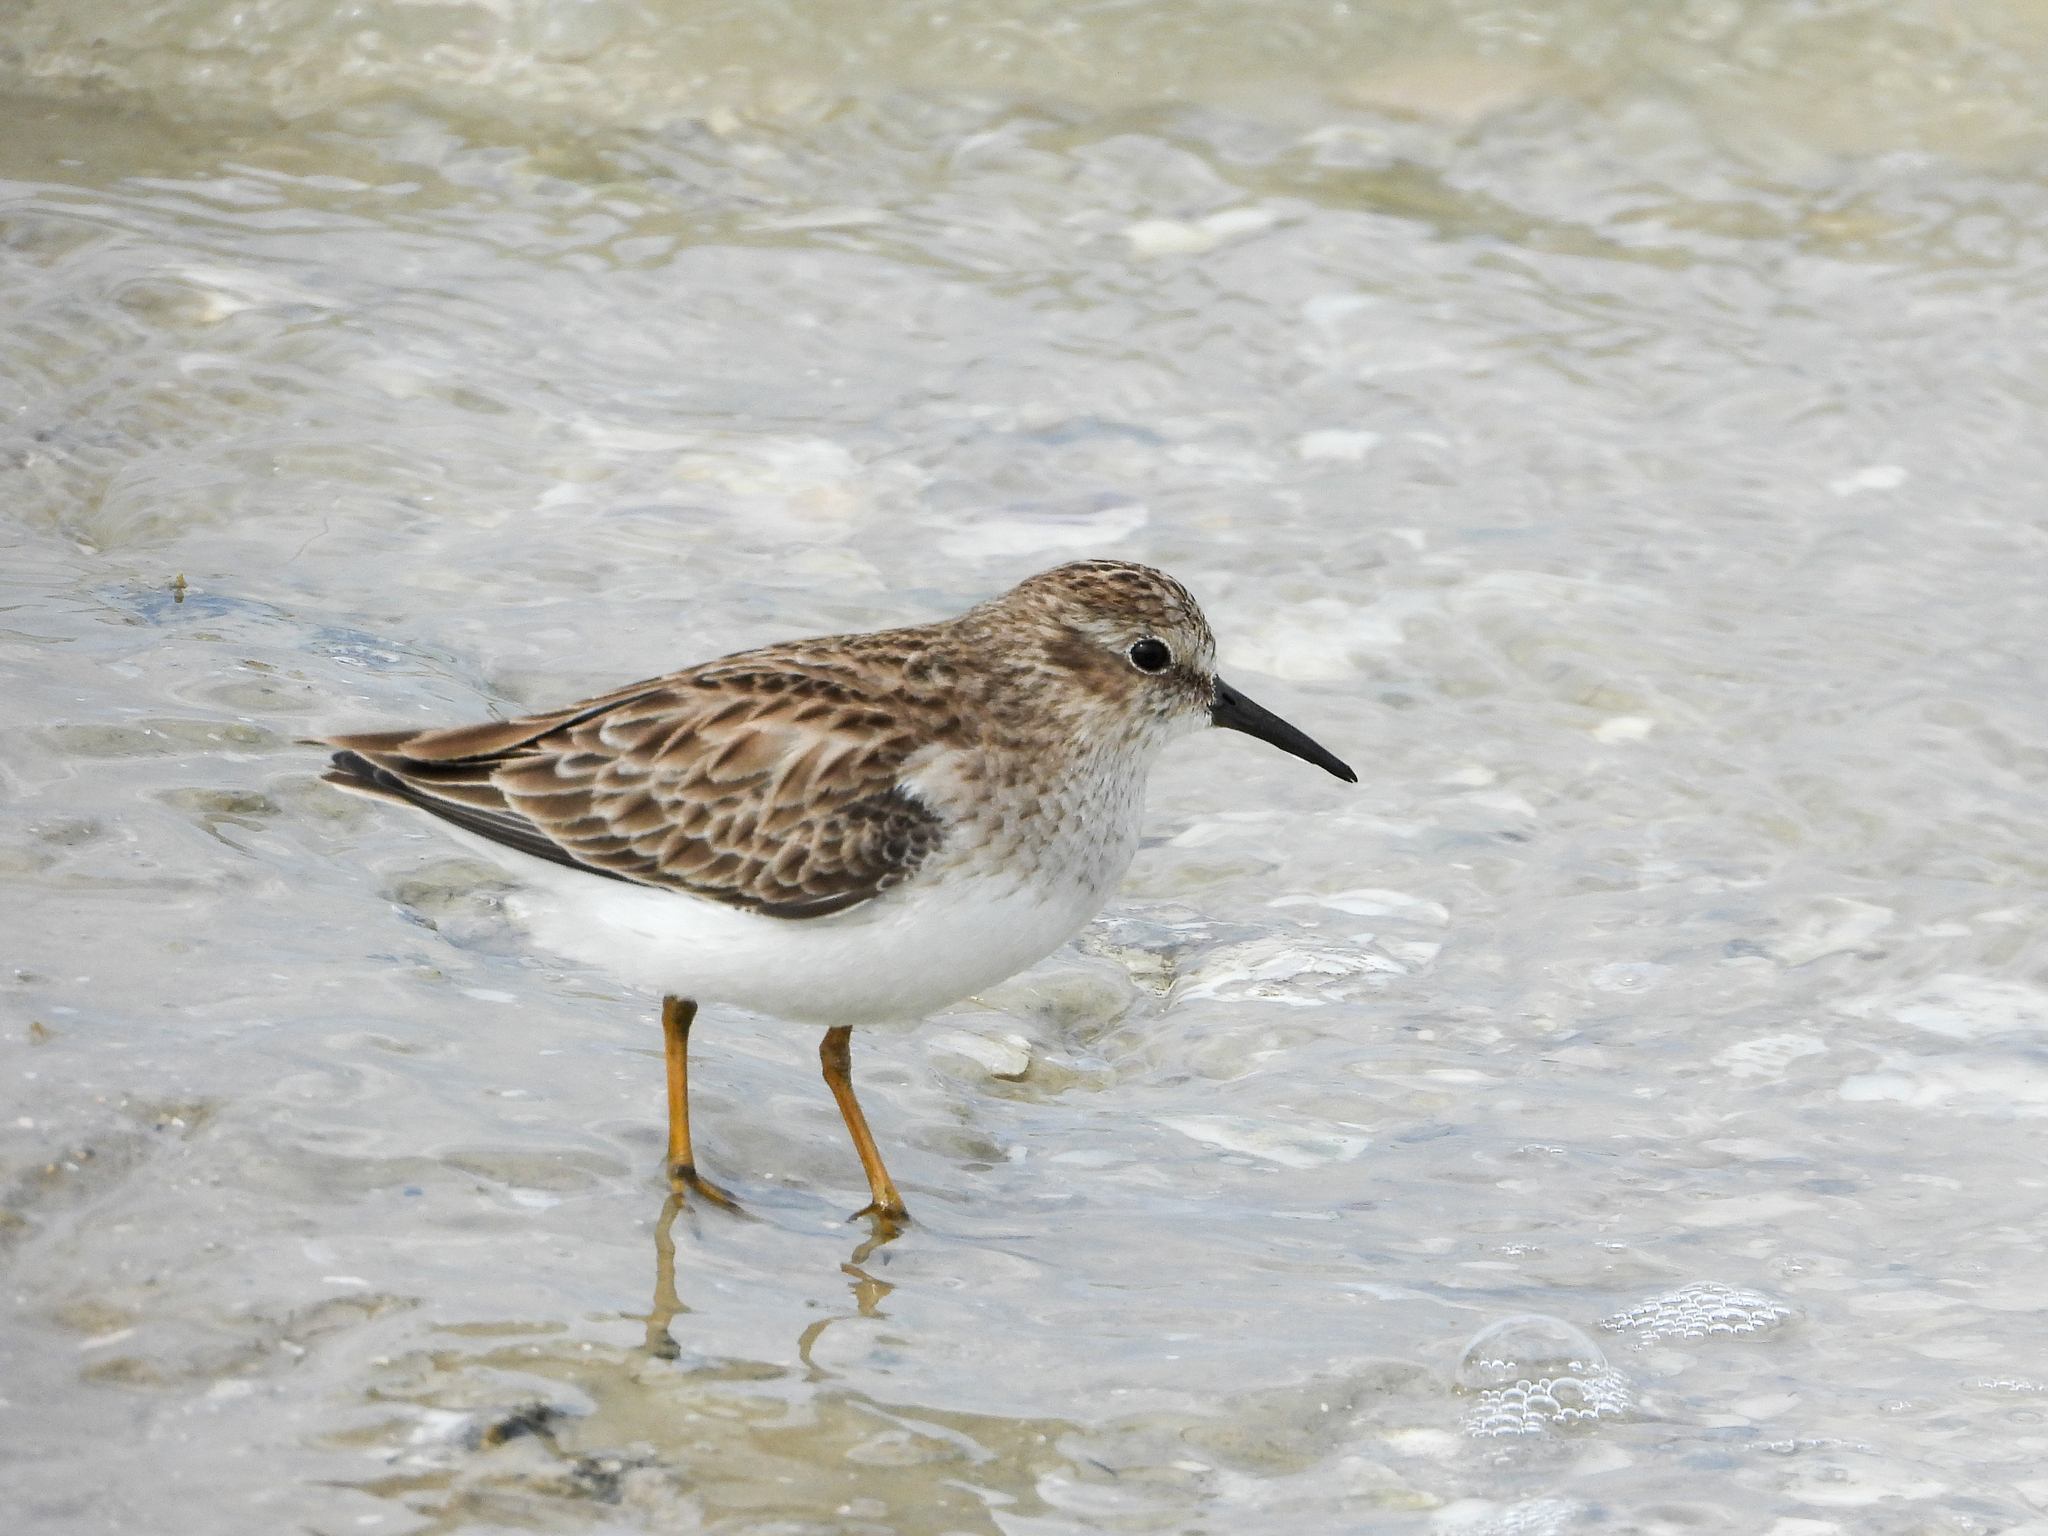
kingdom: Animalia
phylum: Chordata
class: Aves
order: Charadriiformes
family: Scolopacidae
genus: Calidris
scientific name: Calidris minutilla
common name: Least sandpiper
